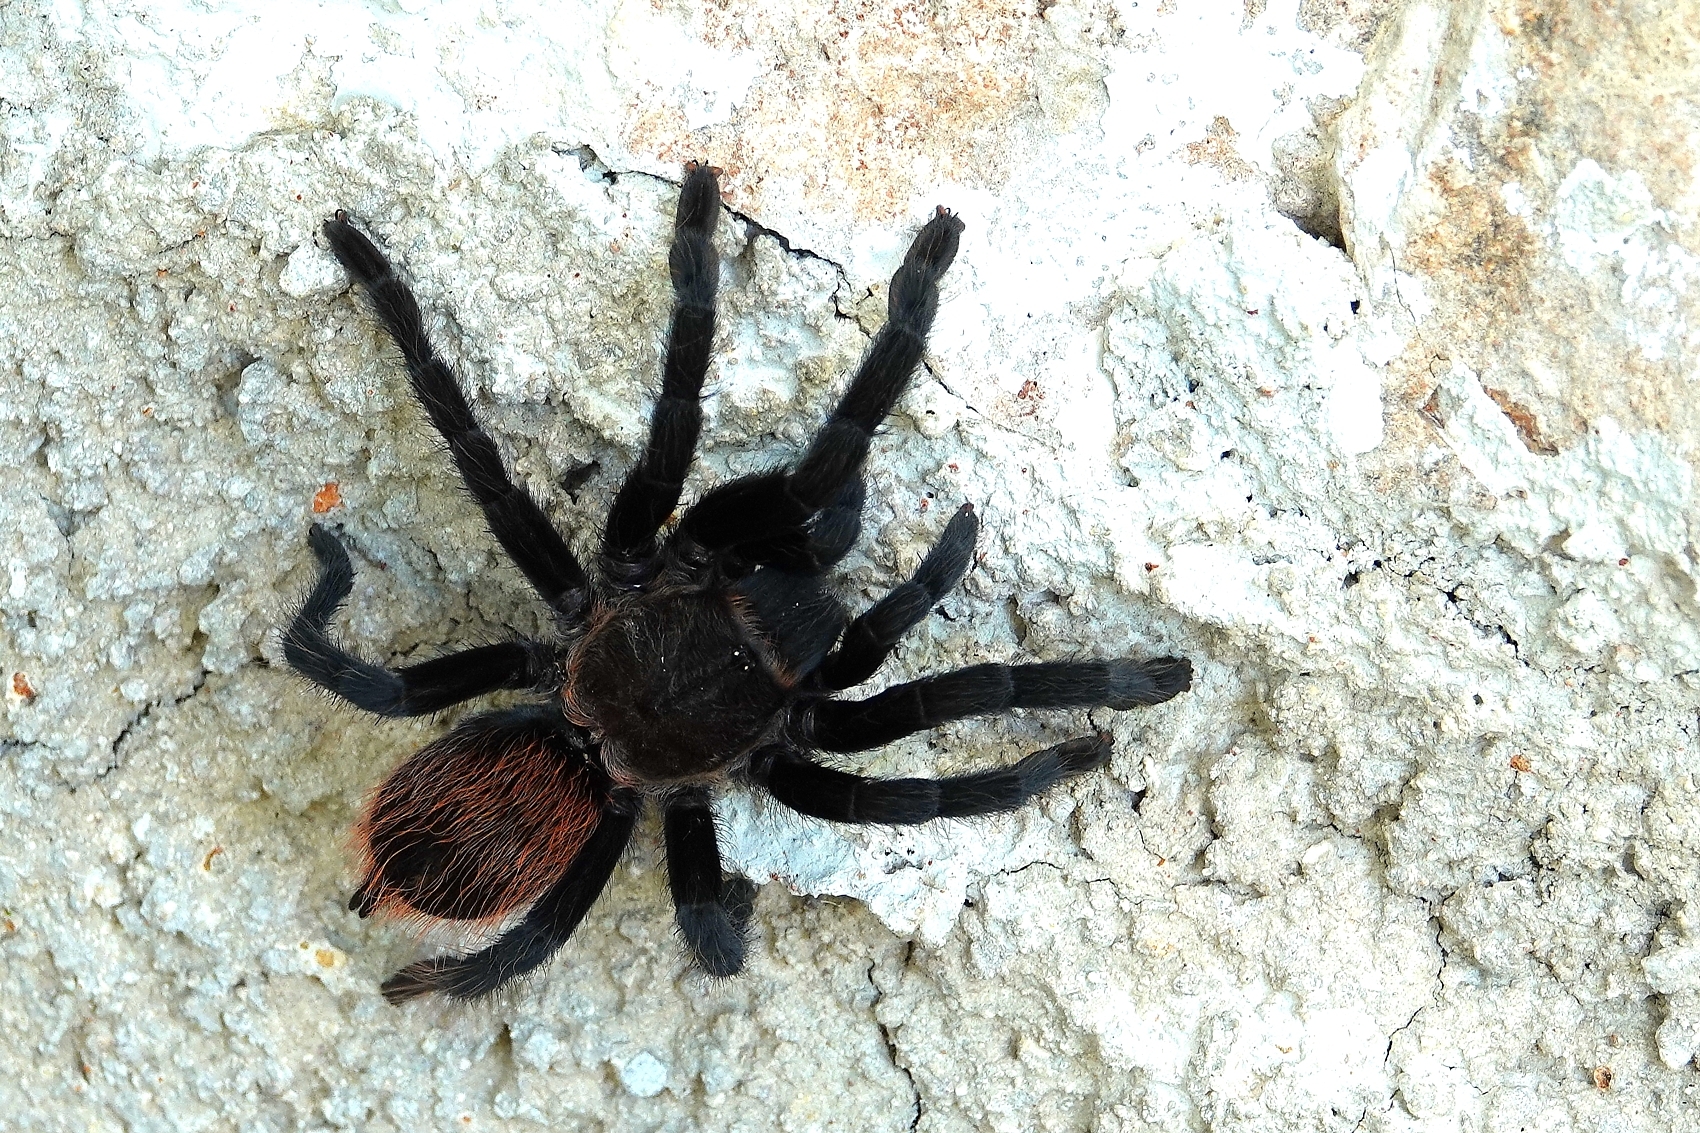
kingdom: Animalia
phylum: Arthropoda
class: Arachnida
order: Araneae
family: Theraphosidae
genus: Tliltocatl
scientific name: Tliltocatl epicureanus
